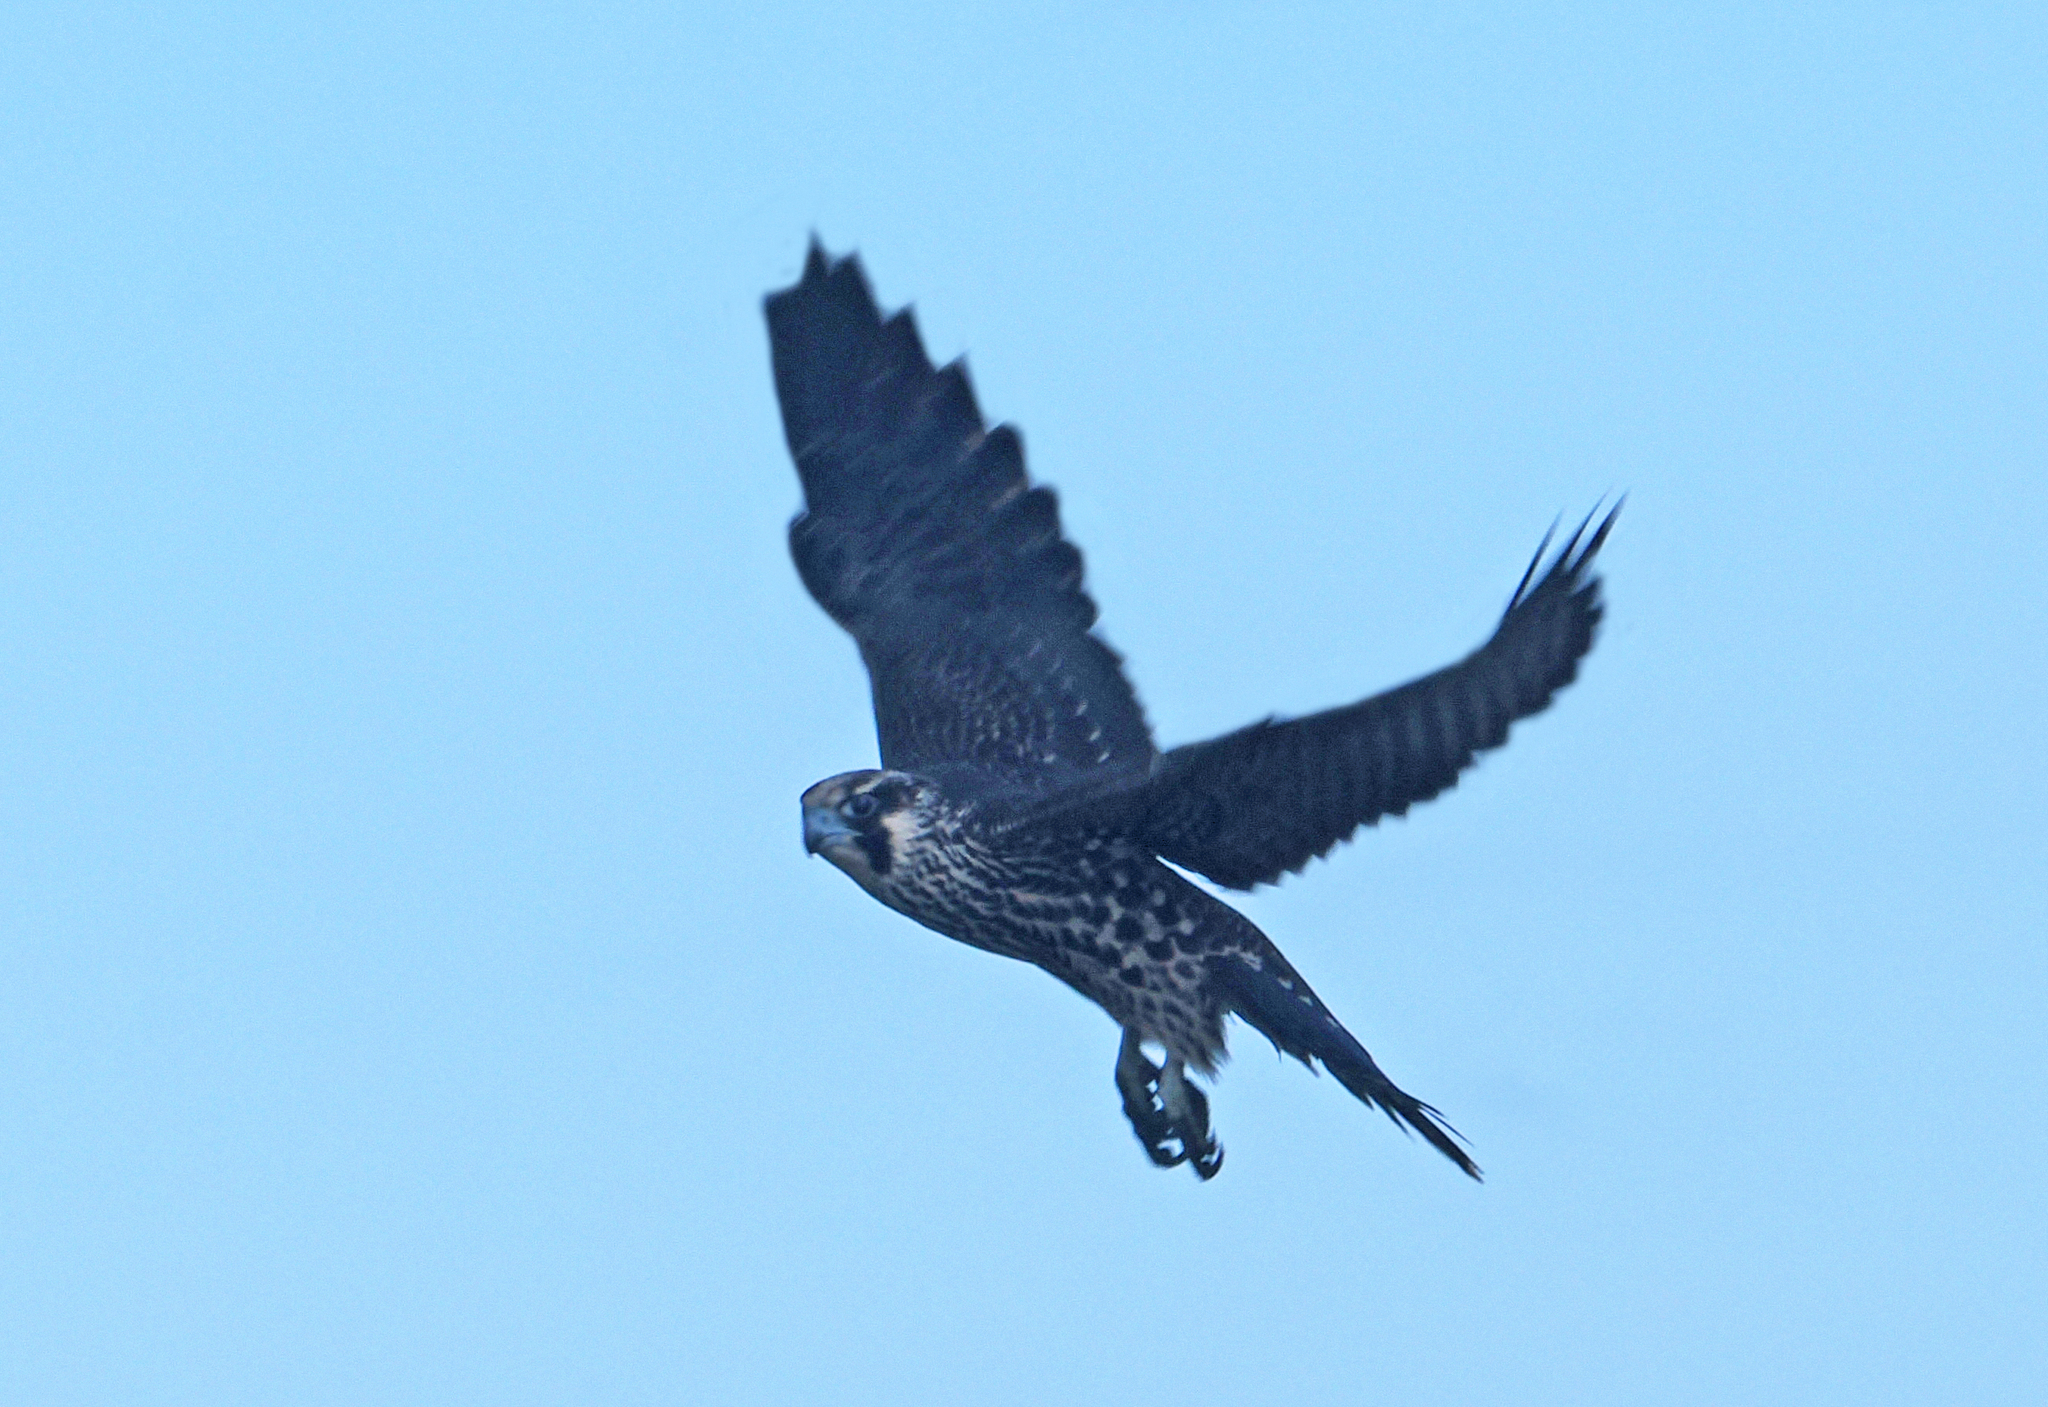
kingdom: Animalia
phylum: Chordata
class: Aves
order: Falconiformes
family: Falconidae
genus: Falco
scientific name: Falco peregrinus
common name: Peregrine falcon
